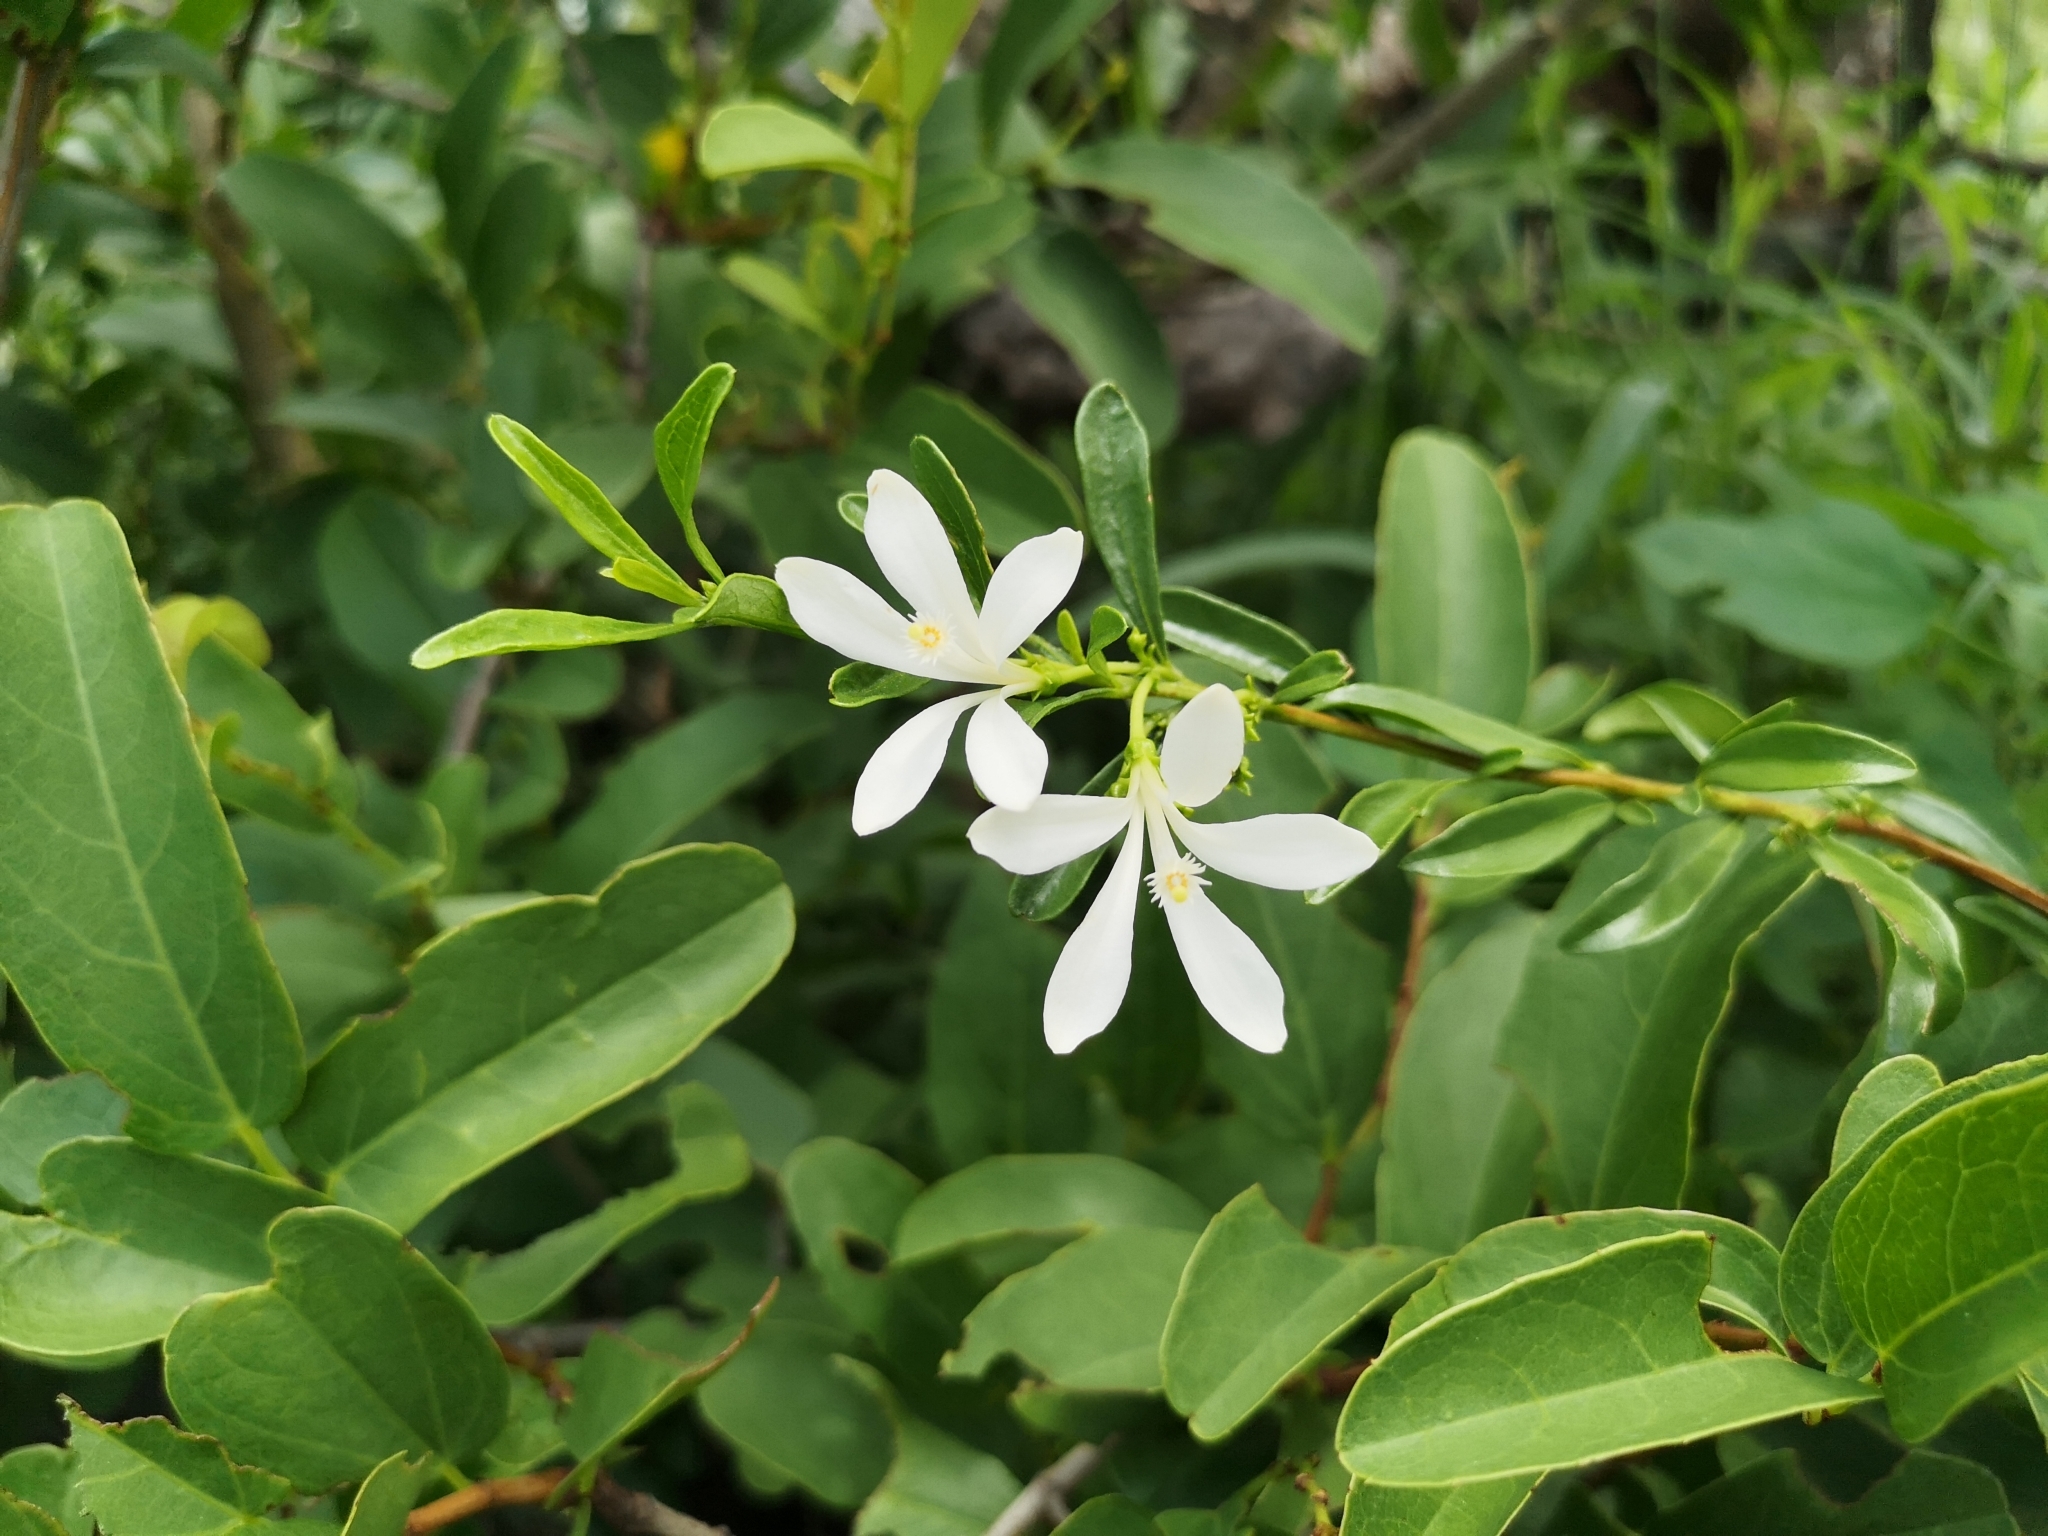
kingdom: Plantae
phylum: Tracheophyta
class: Magnoliopsida
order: Sapindales
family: Meliaceae
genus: Turraea
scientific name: Turraea obtusifolia
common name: Small honeysuckle tree
